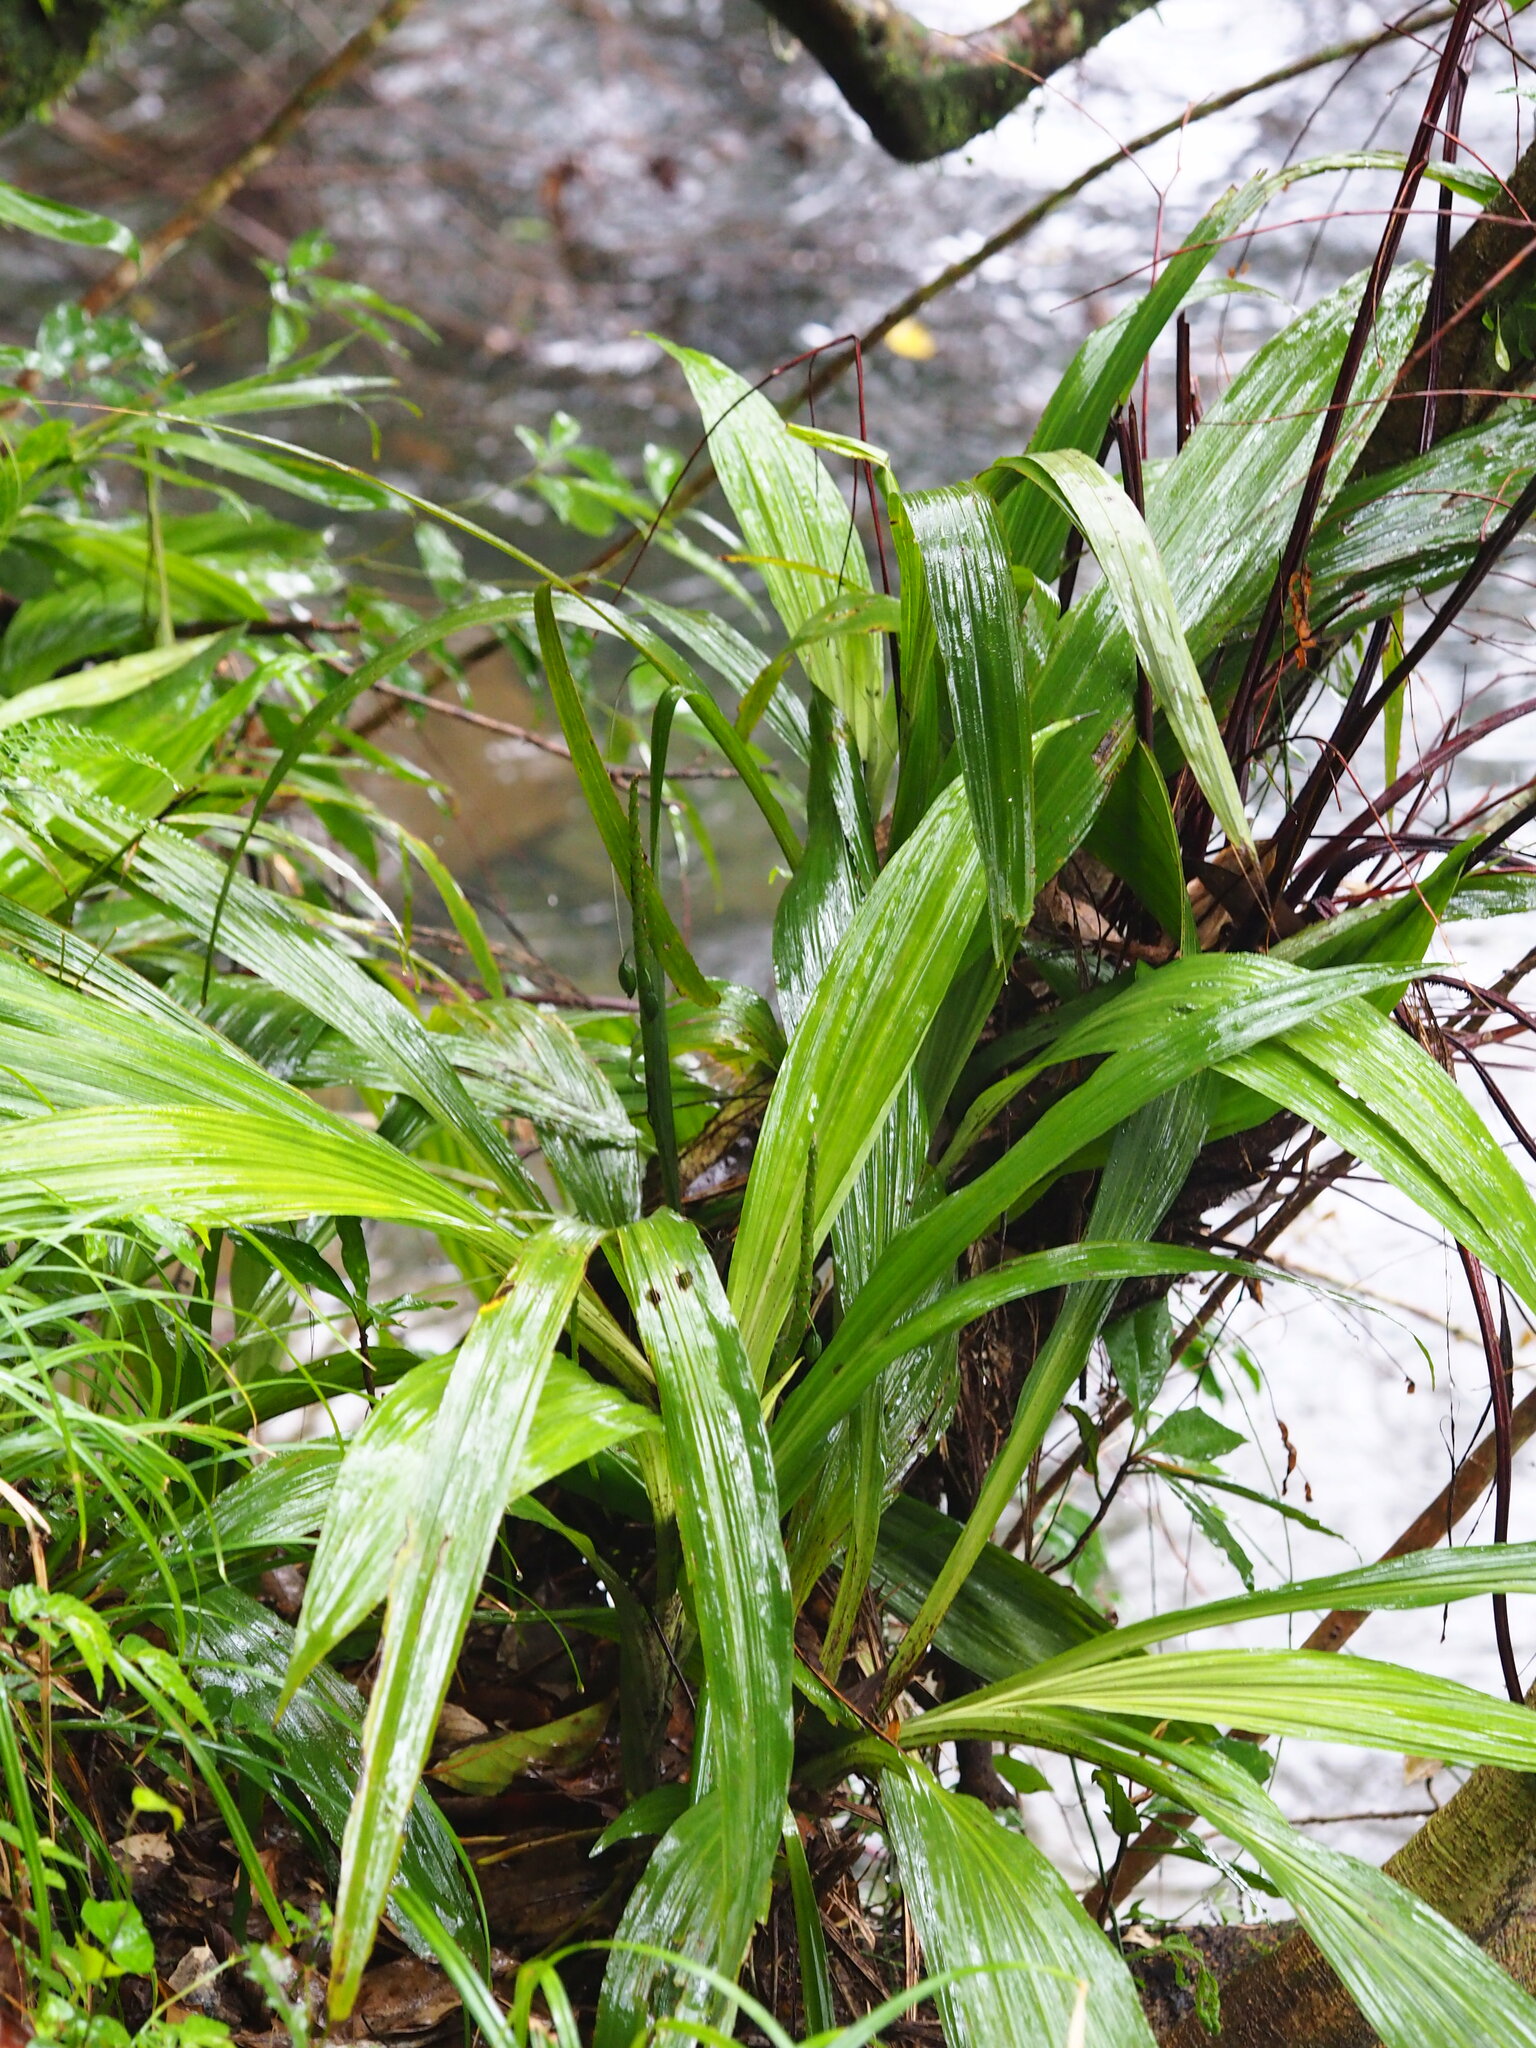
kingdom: Plantae
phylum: Tracheophyta
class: Liliopsida
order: Asparagales
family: Orchidaceae
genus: Calanthe
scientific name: Calanthe formosana
